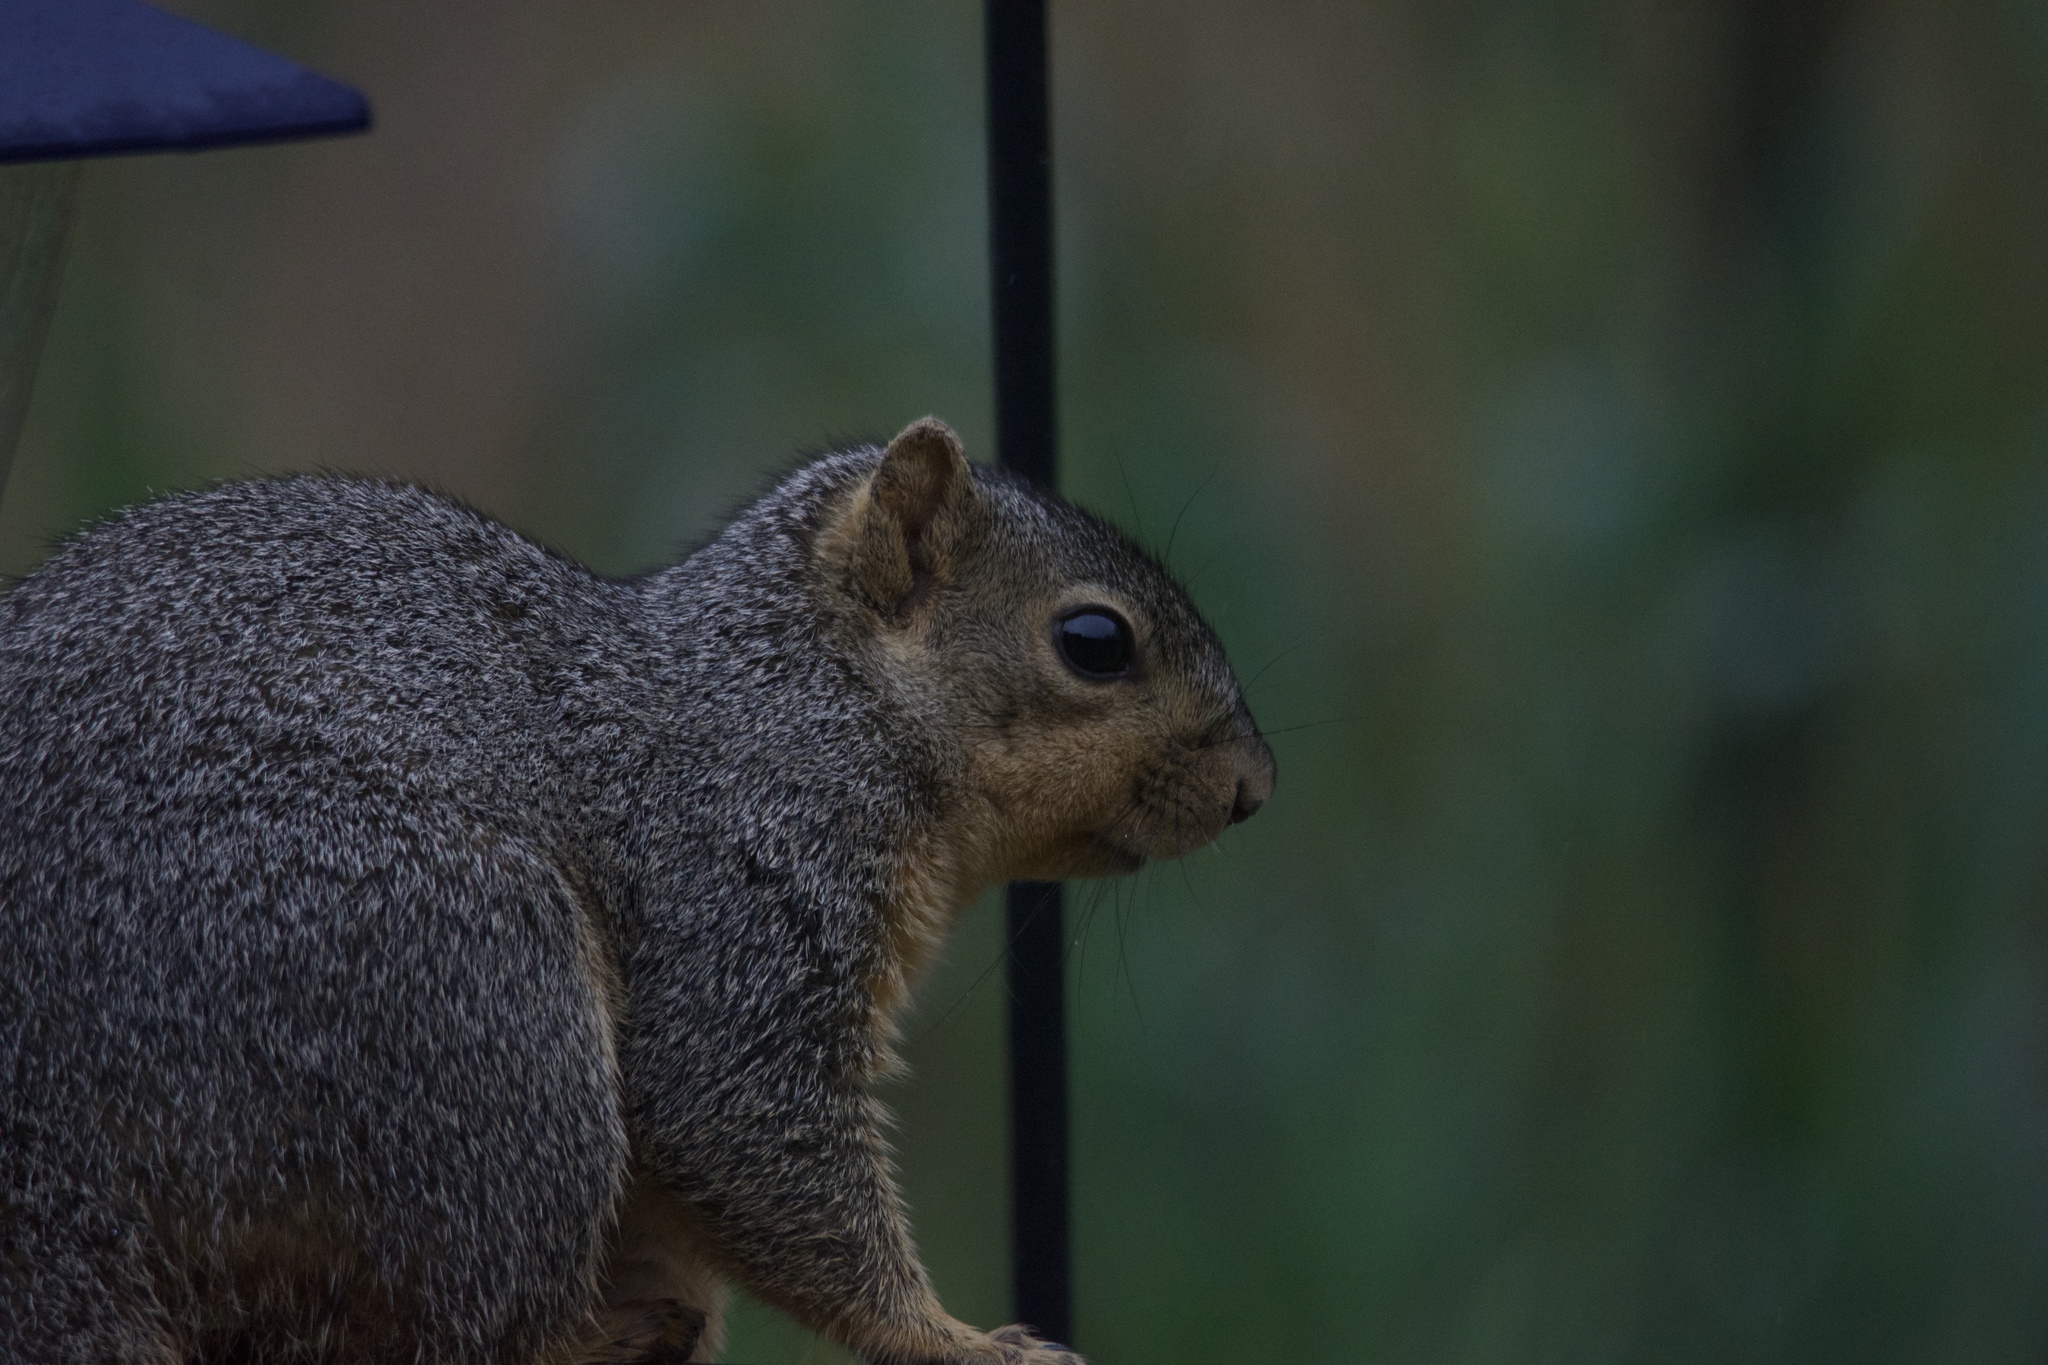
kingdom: Animalia
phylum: Chordata
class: Mammalia
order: Rodentia
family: Sciuridae
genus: Sciurus
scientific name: Sciurus niger
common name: Fox squirrel
